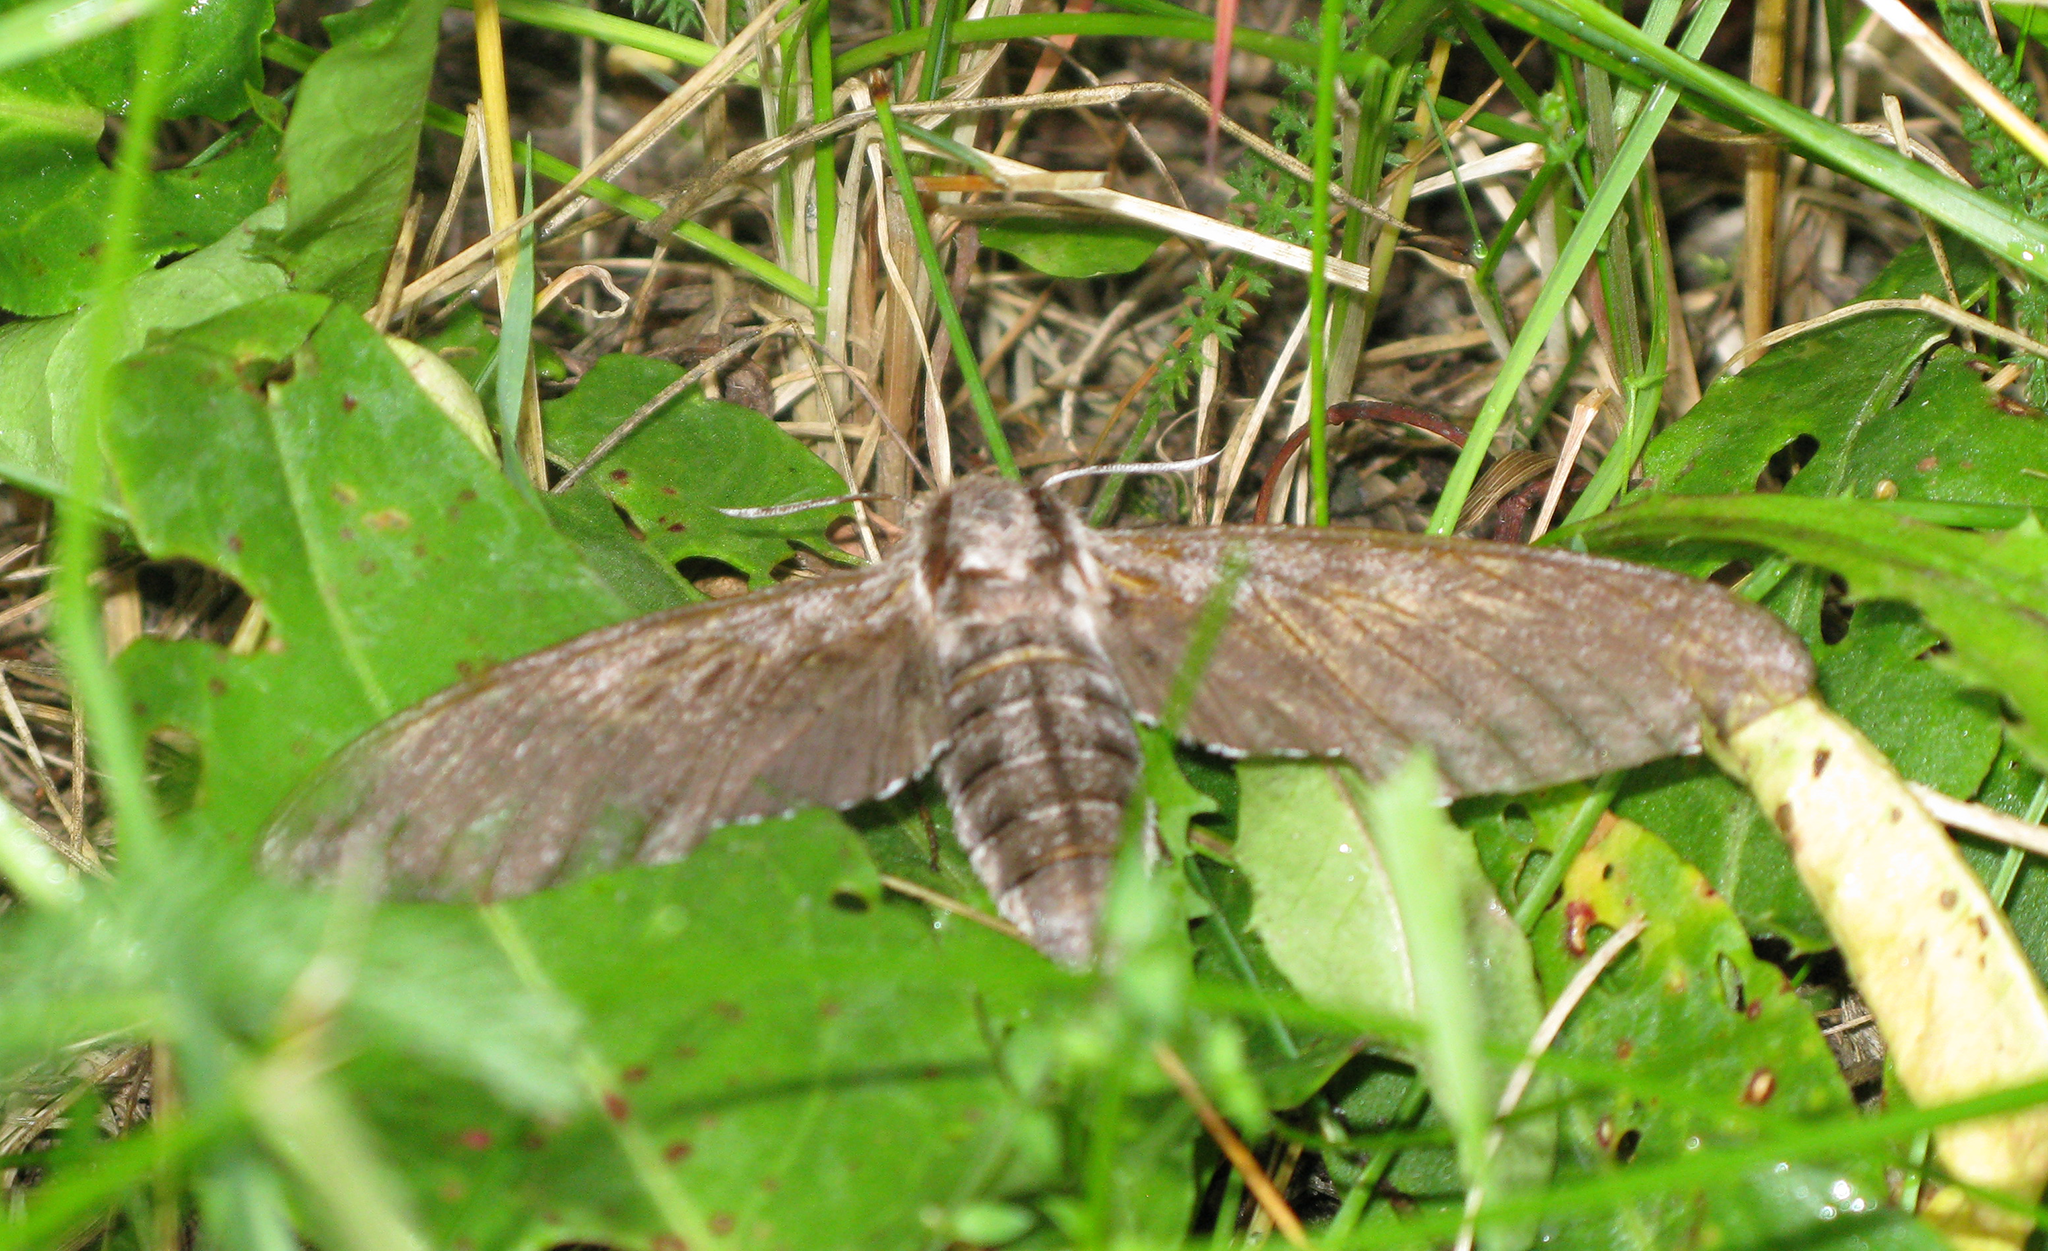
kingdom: Animalia
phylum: Arthropoda
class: Insecta
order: Lepidoptera
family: Sphingidae
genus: Sphinx
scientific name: Sphinx pinastri
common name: Pine hawk-moth
